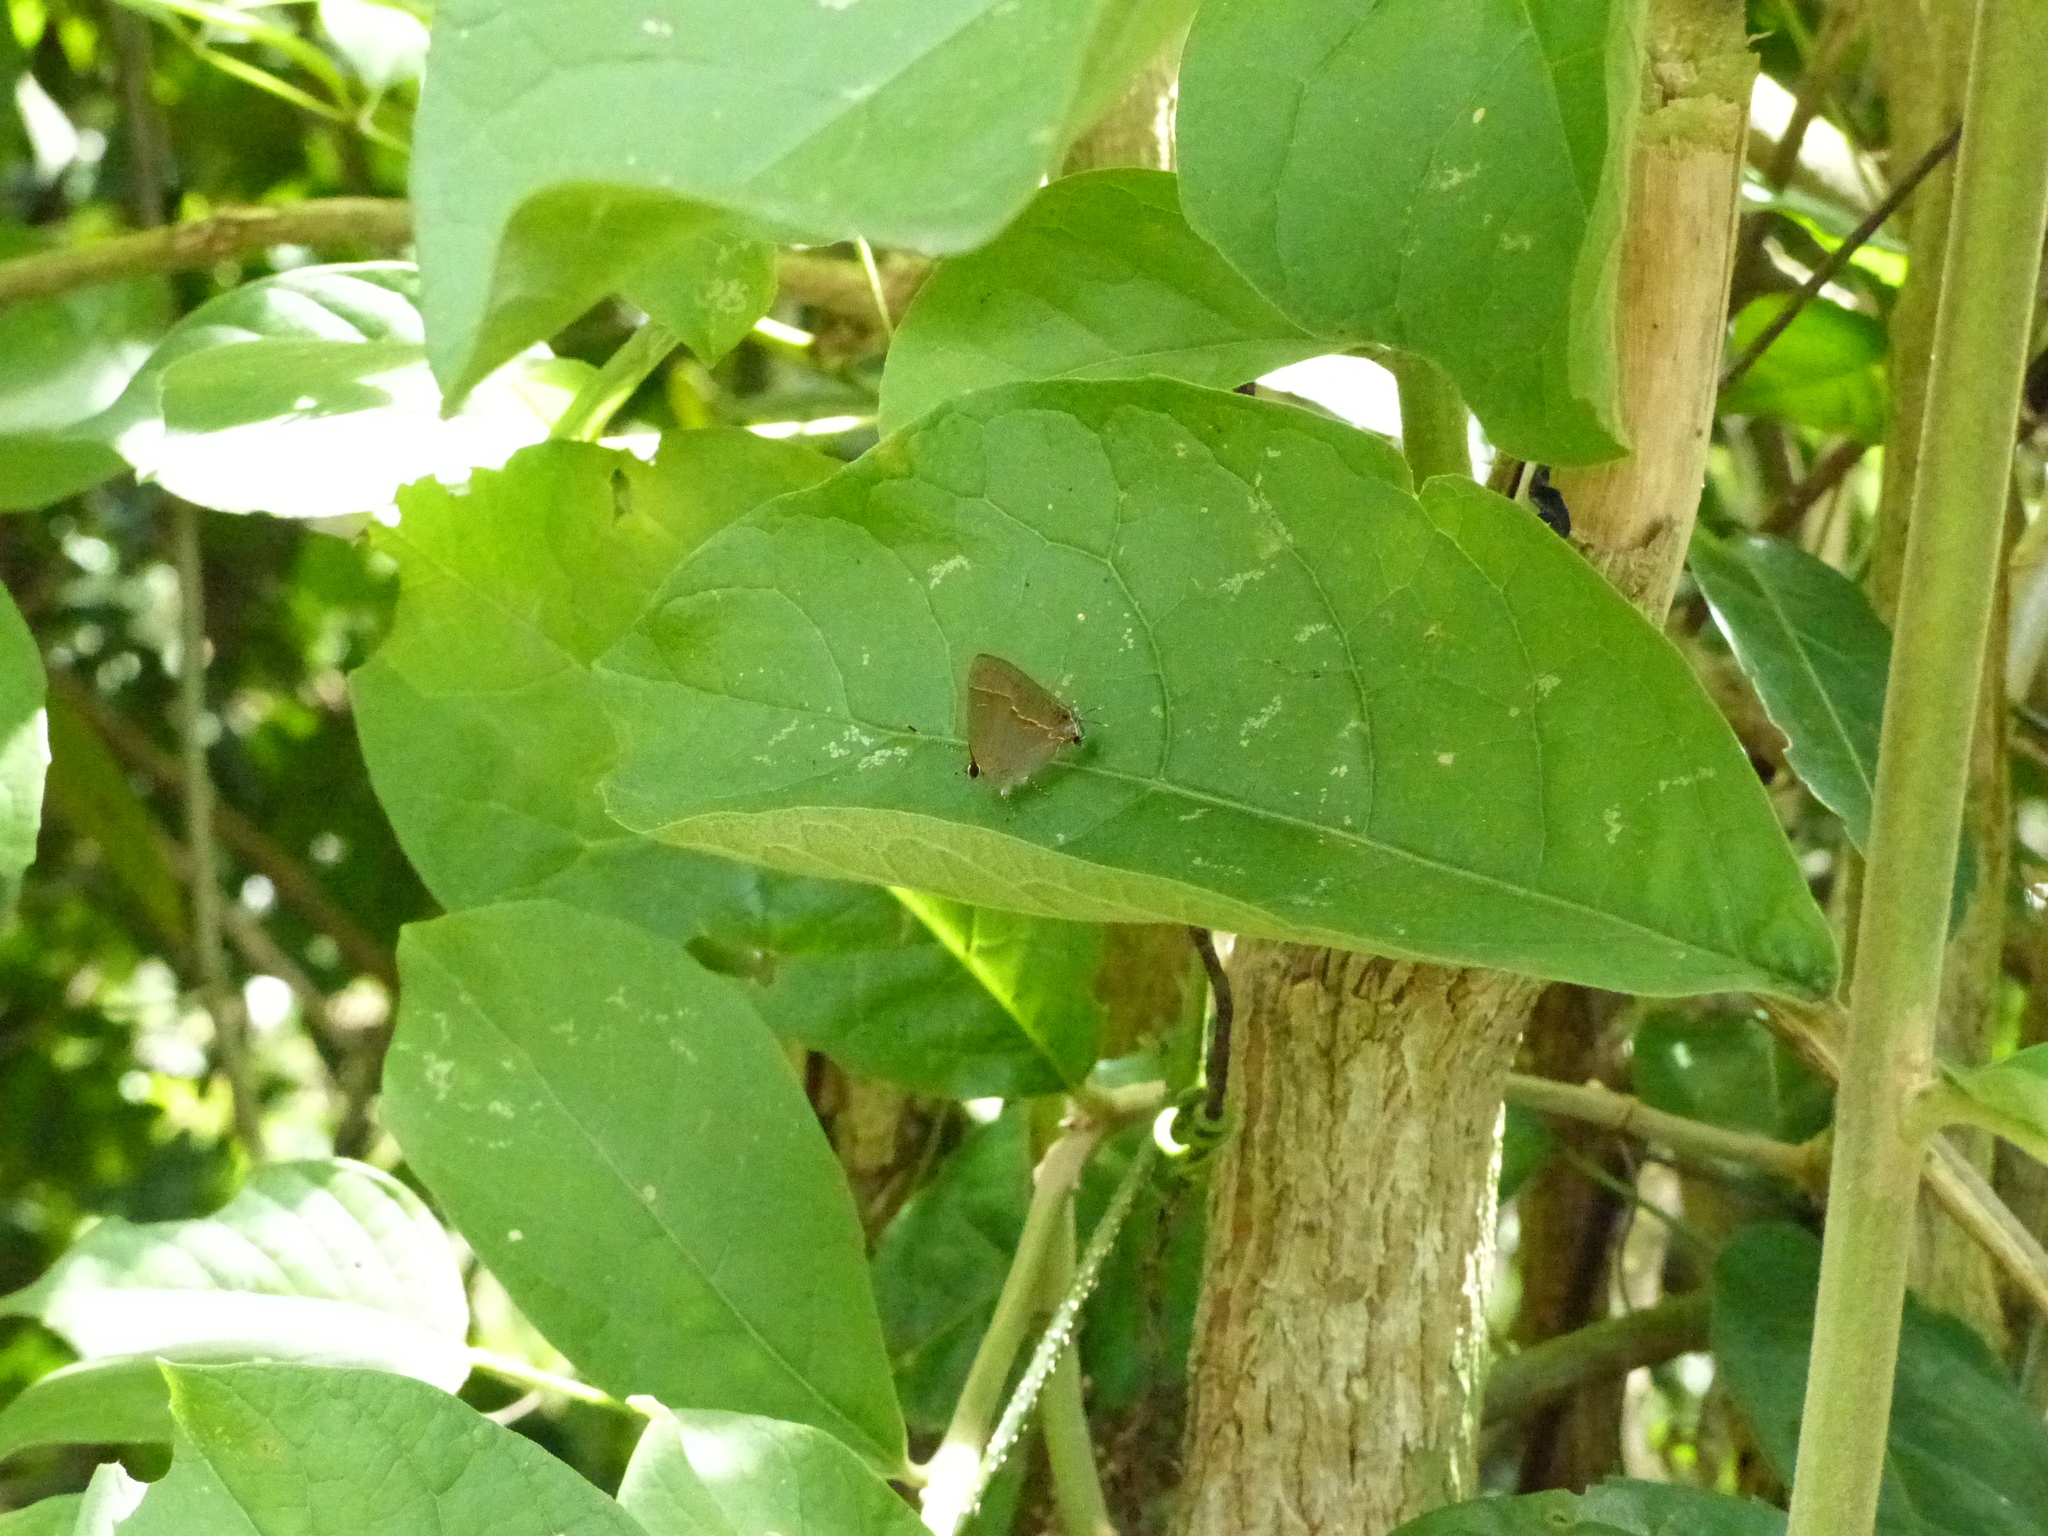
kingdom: Animalia
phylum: Arthropoda
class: Insecta
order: Lepidoptera
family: Lycaenidae
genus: Electrostrymon
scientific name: Electrostrymon endymion
